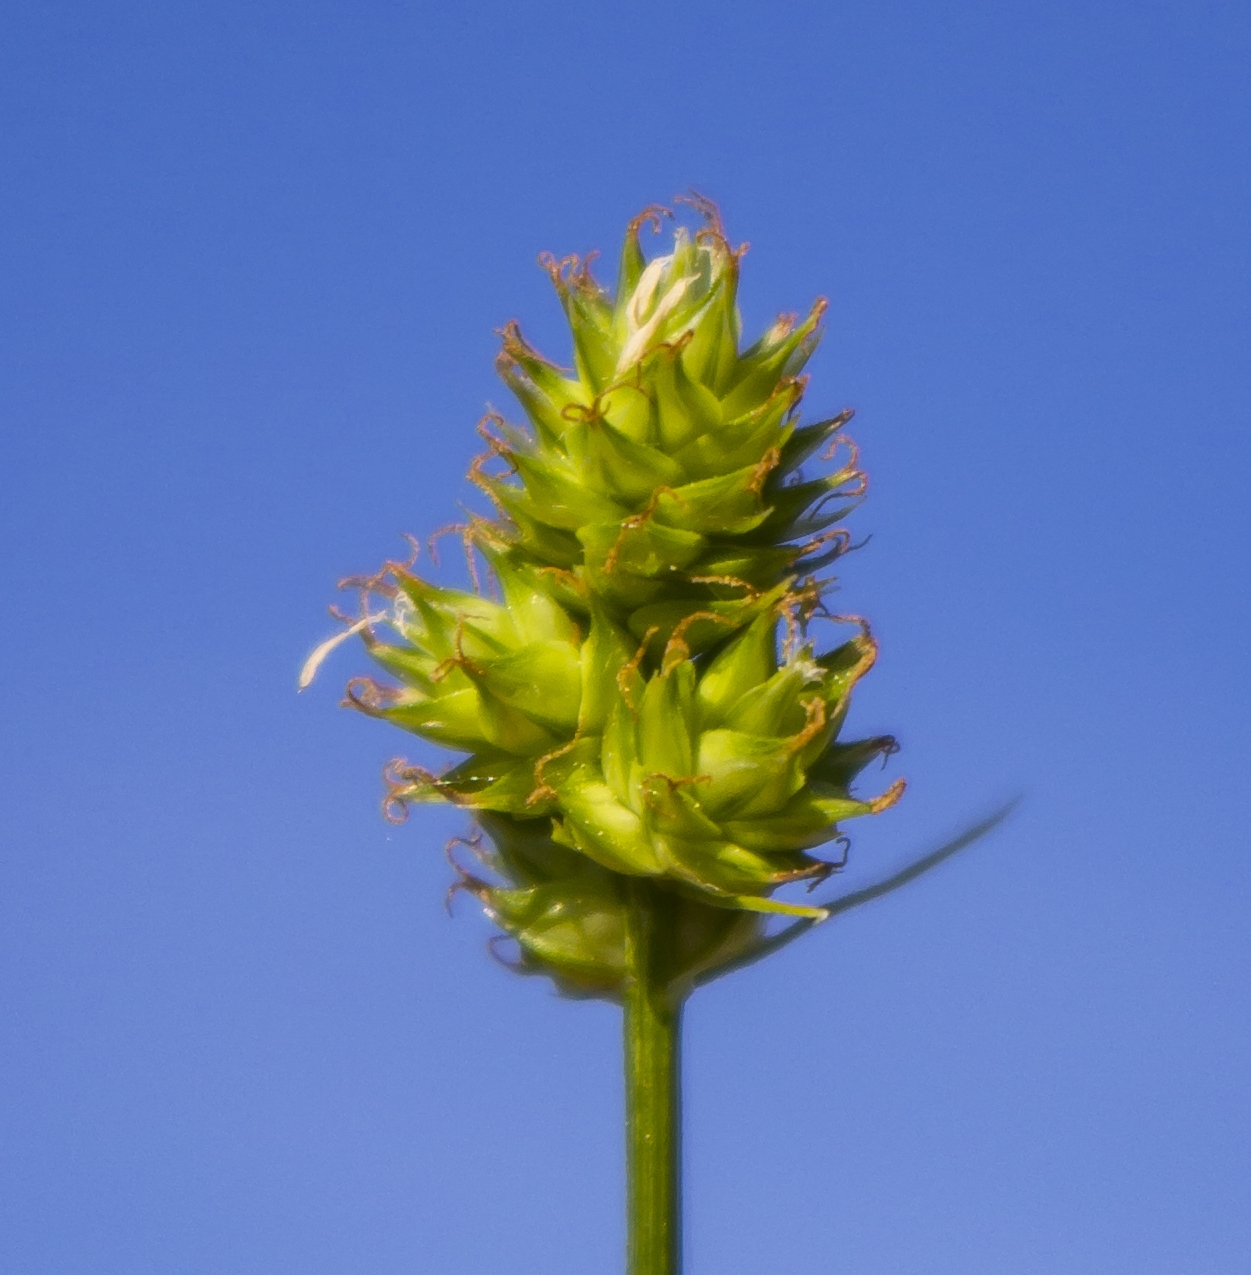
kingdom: Plantae
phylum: Tracheophyta
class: Liliopsida
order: Poales
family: Cyperaceae
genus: Carex
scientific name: Carex muehlenbergii
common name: Muhlenberg's bracted sedge
